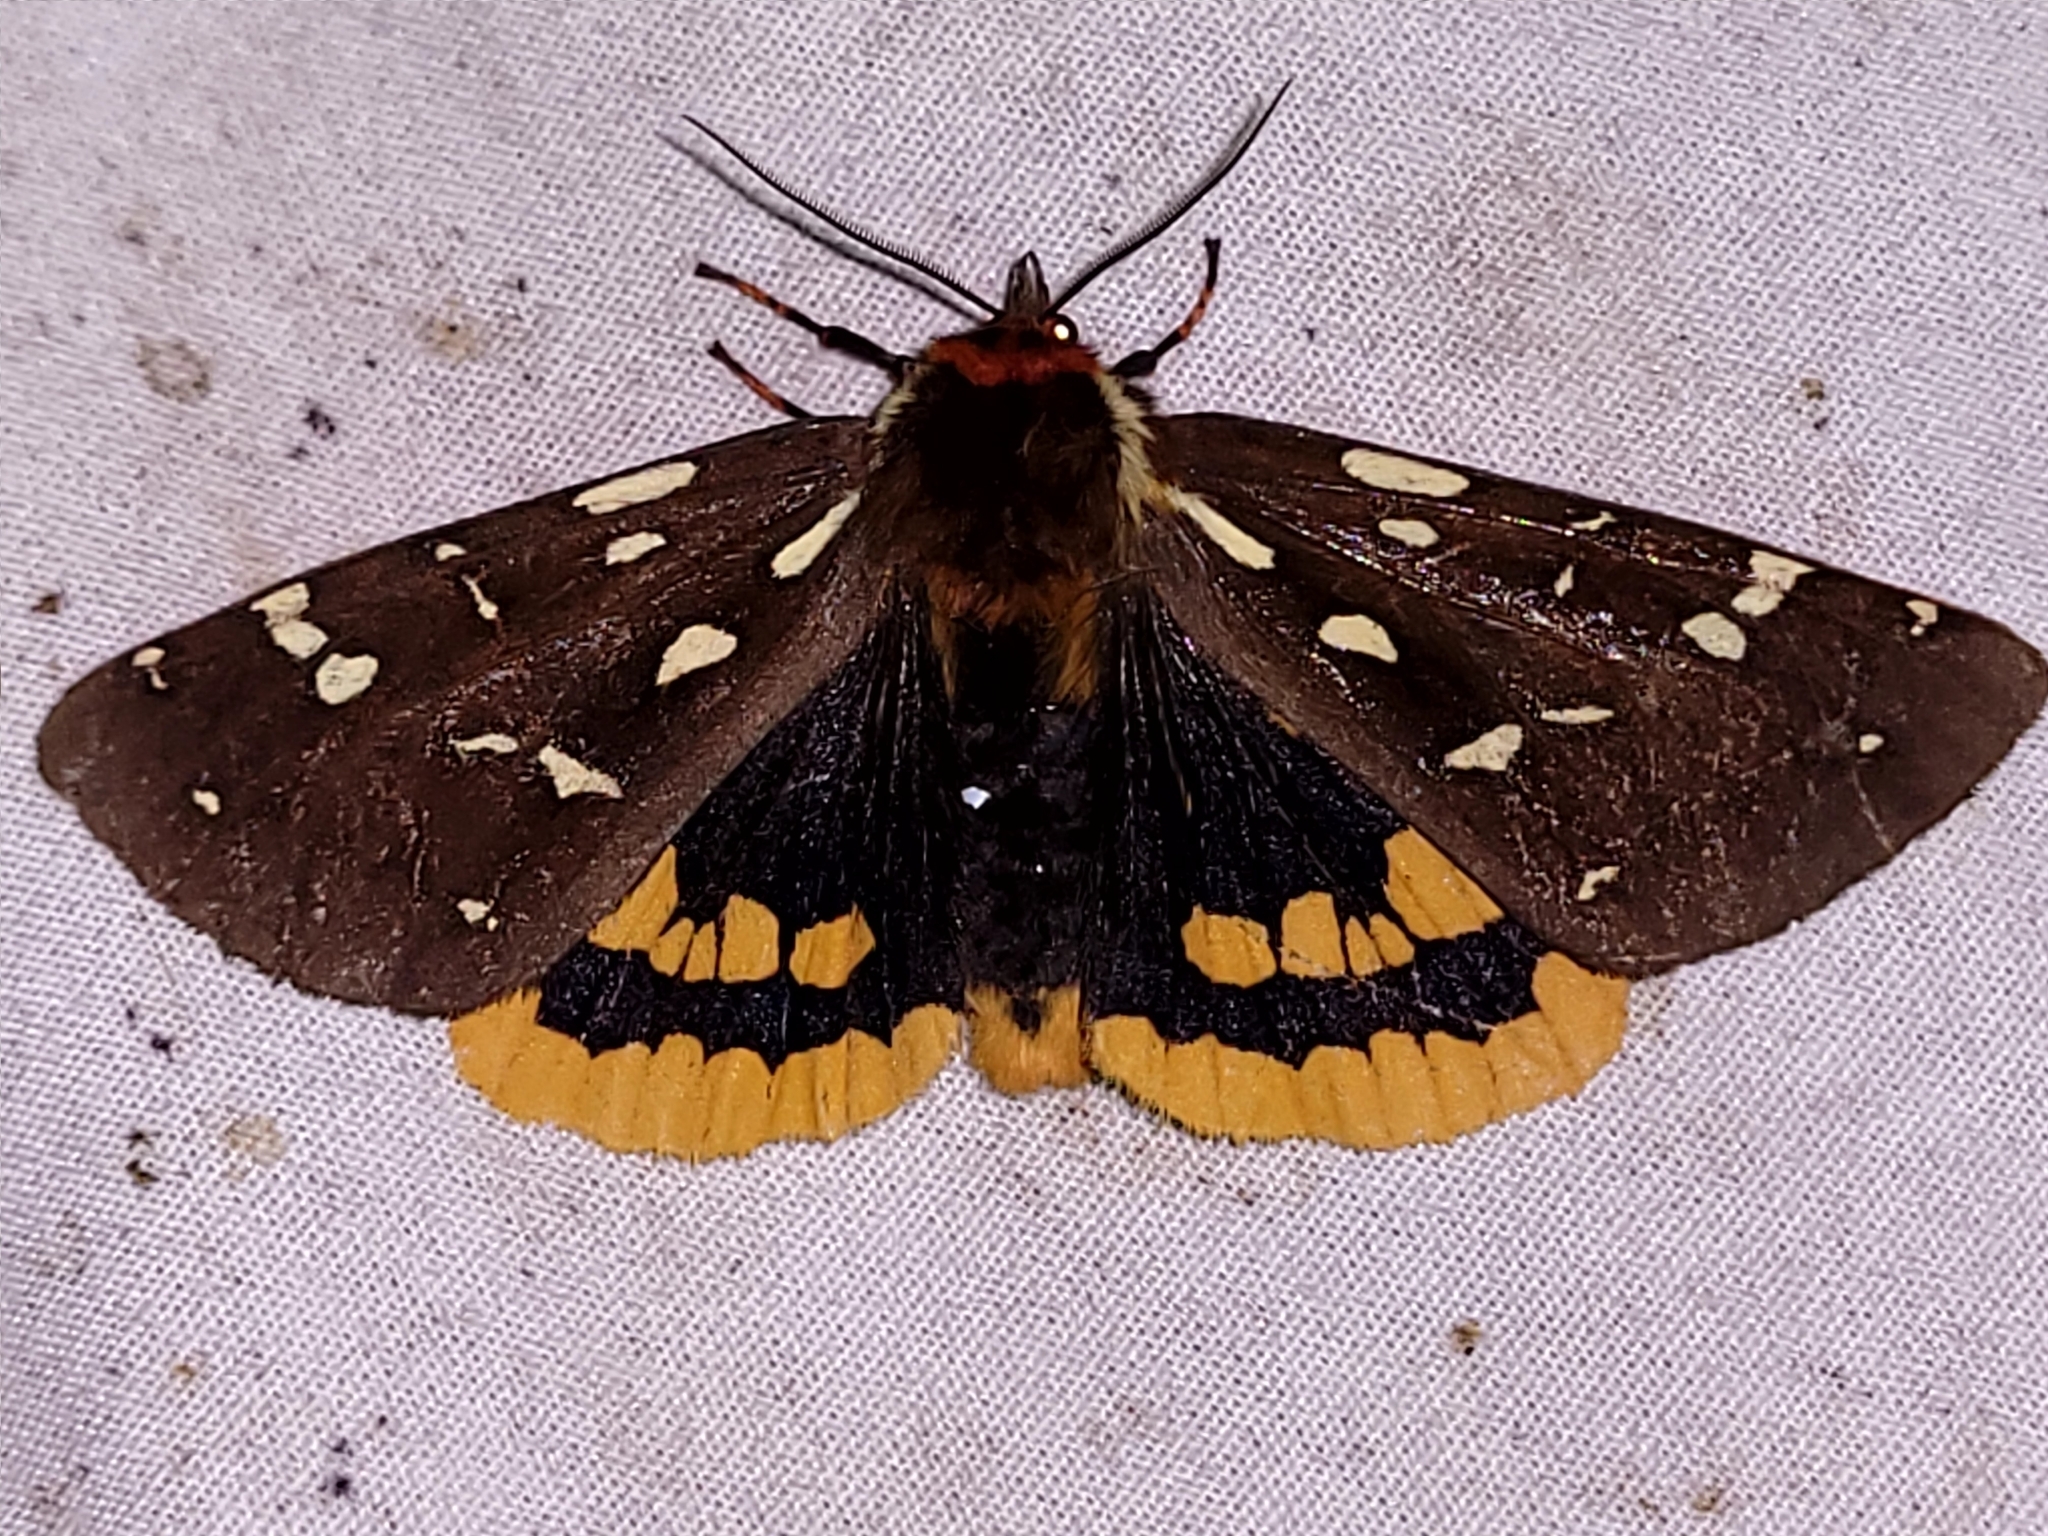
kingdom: Animalia
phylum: Arthropoda
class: Insecta
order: Lepidoptera
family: Erebidae
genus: Arctia
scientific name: Arctia parthenos
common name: St. lawrence tiger moth
